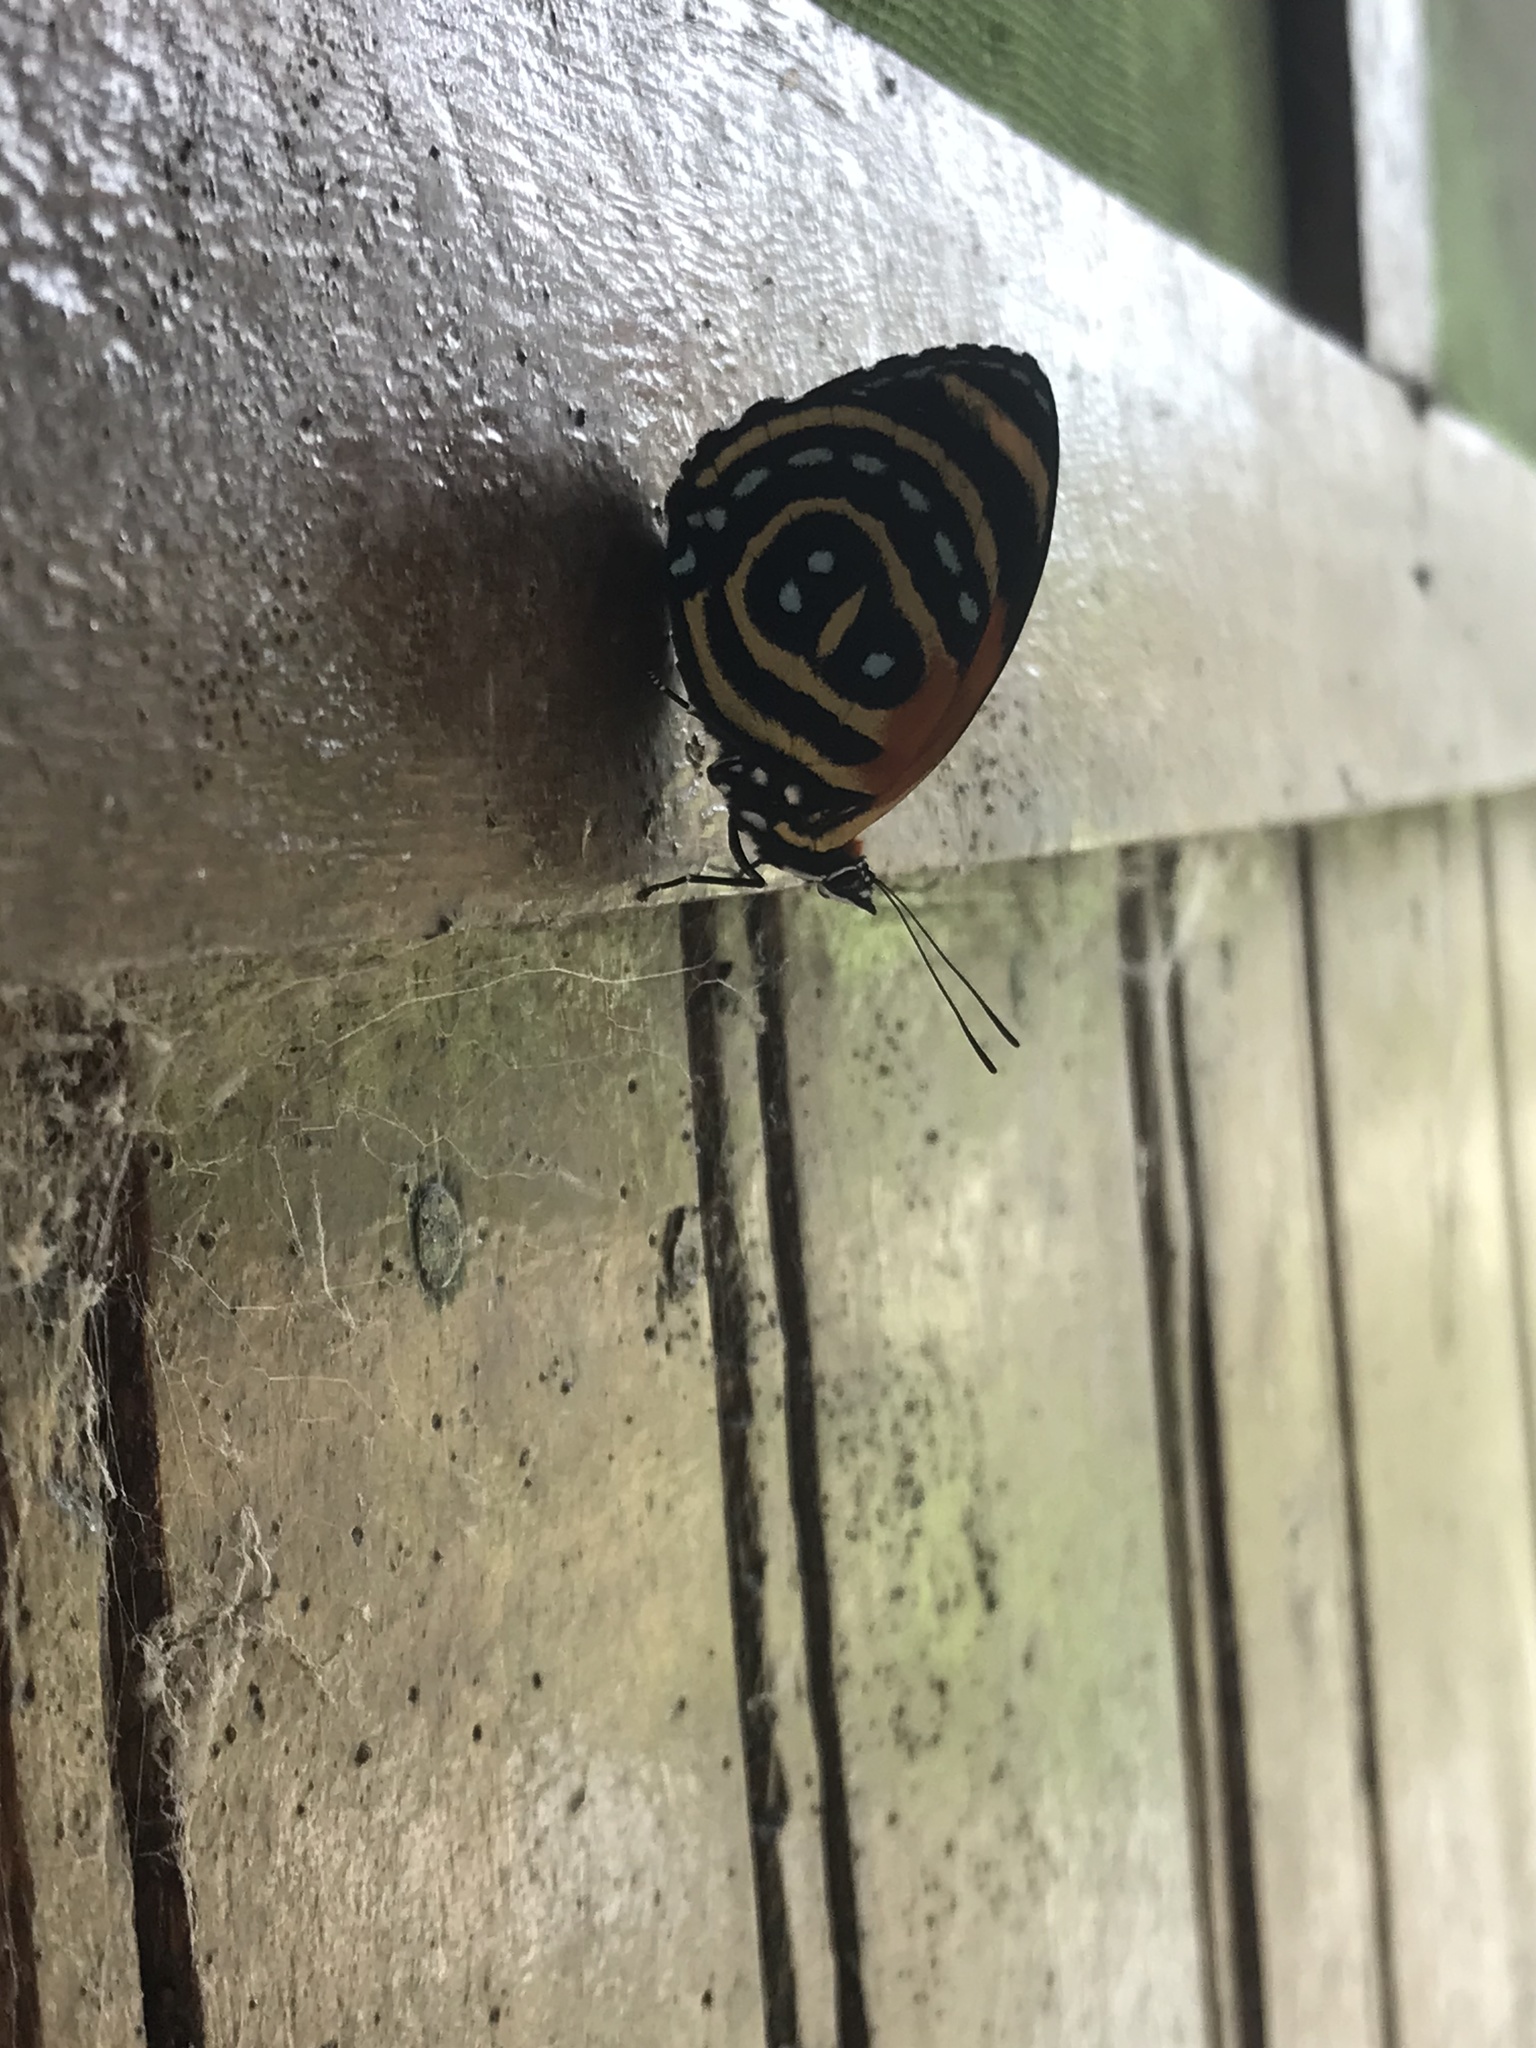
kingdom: Animalia
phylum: Arthropoda
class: Insecta
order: Lepidoptera
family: Nymphalidae
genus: Catagramma
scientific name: Catagramma cynosura
